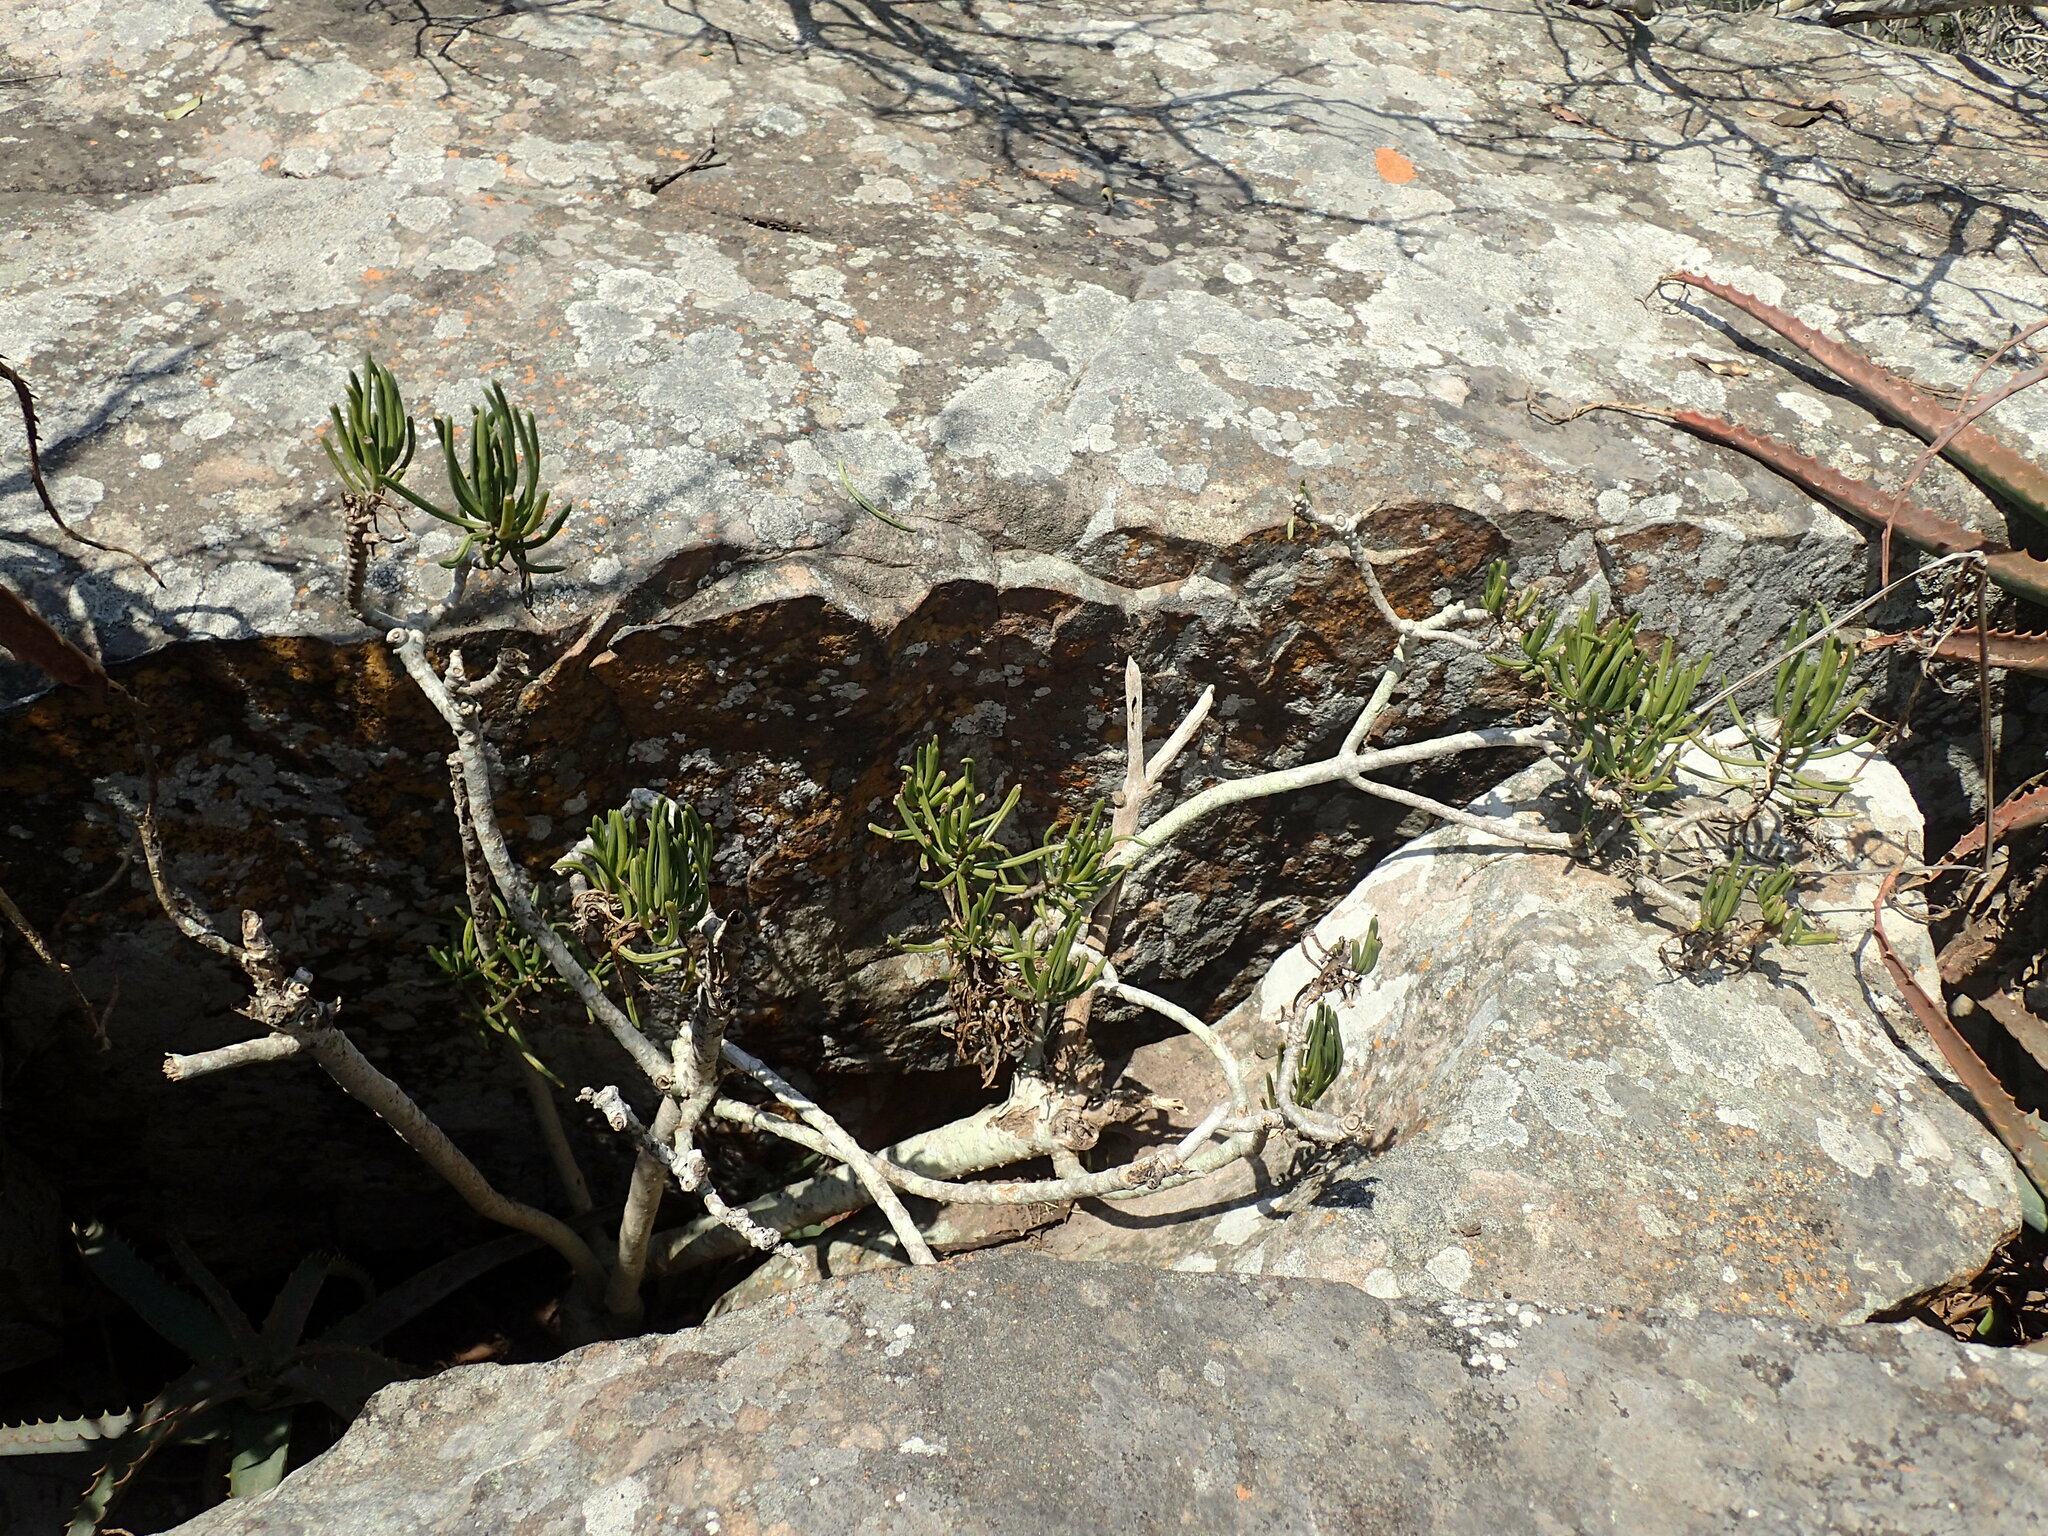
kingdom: Plantae
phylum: Tracheophyta
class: Magnoliopsida
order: Asterales
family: Asteraceae
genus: Kleinia
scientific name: Kleinia barbertonica
